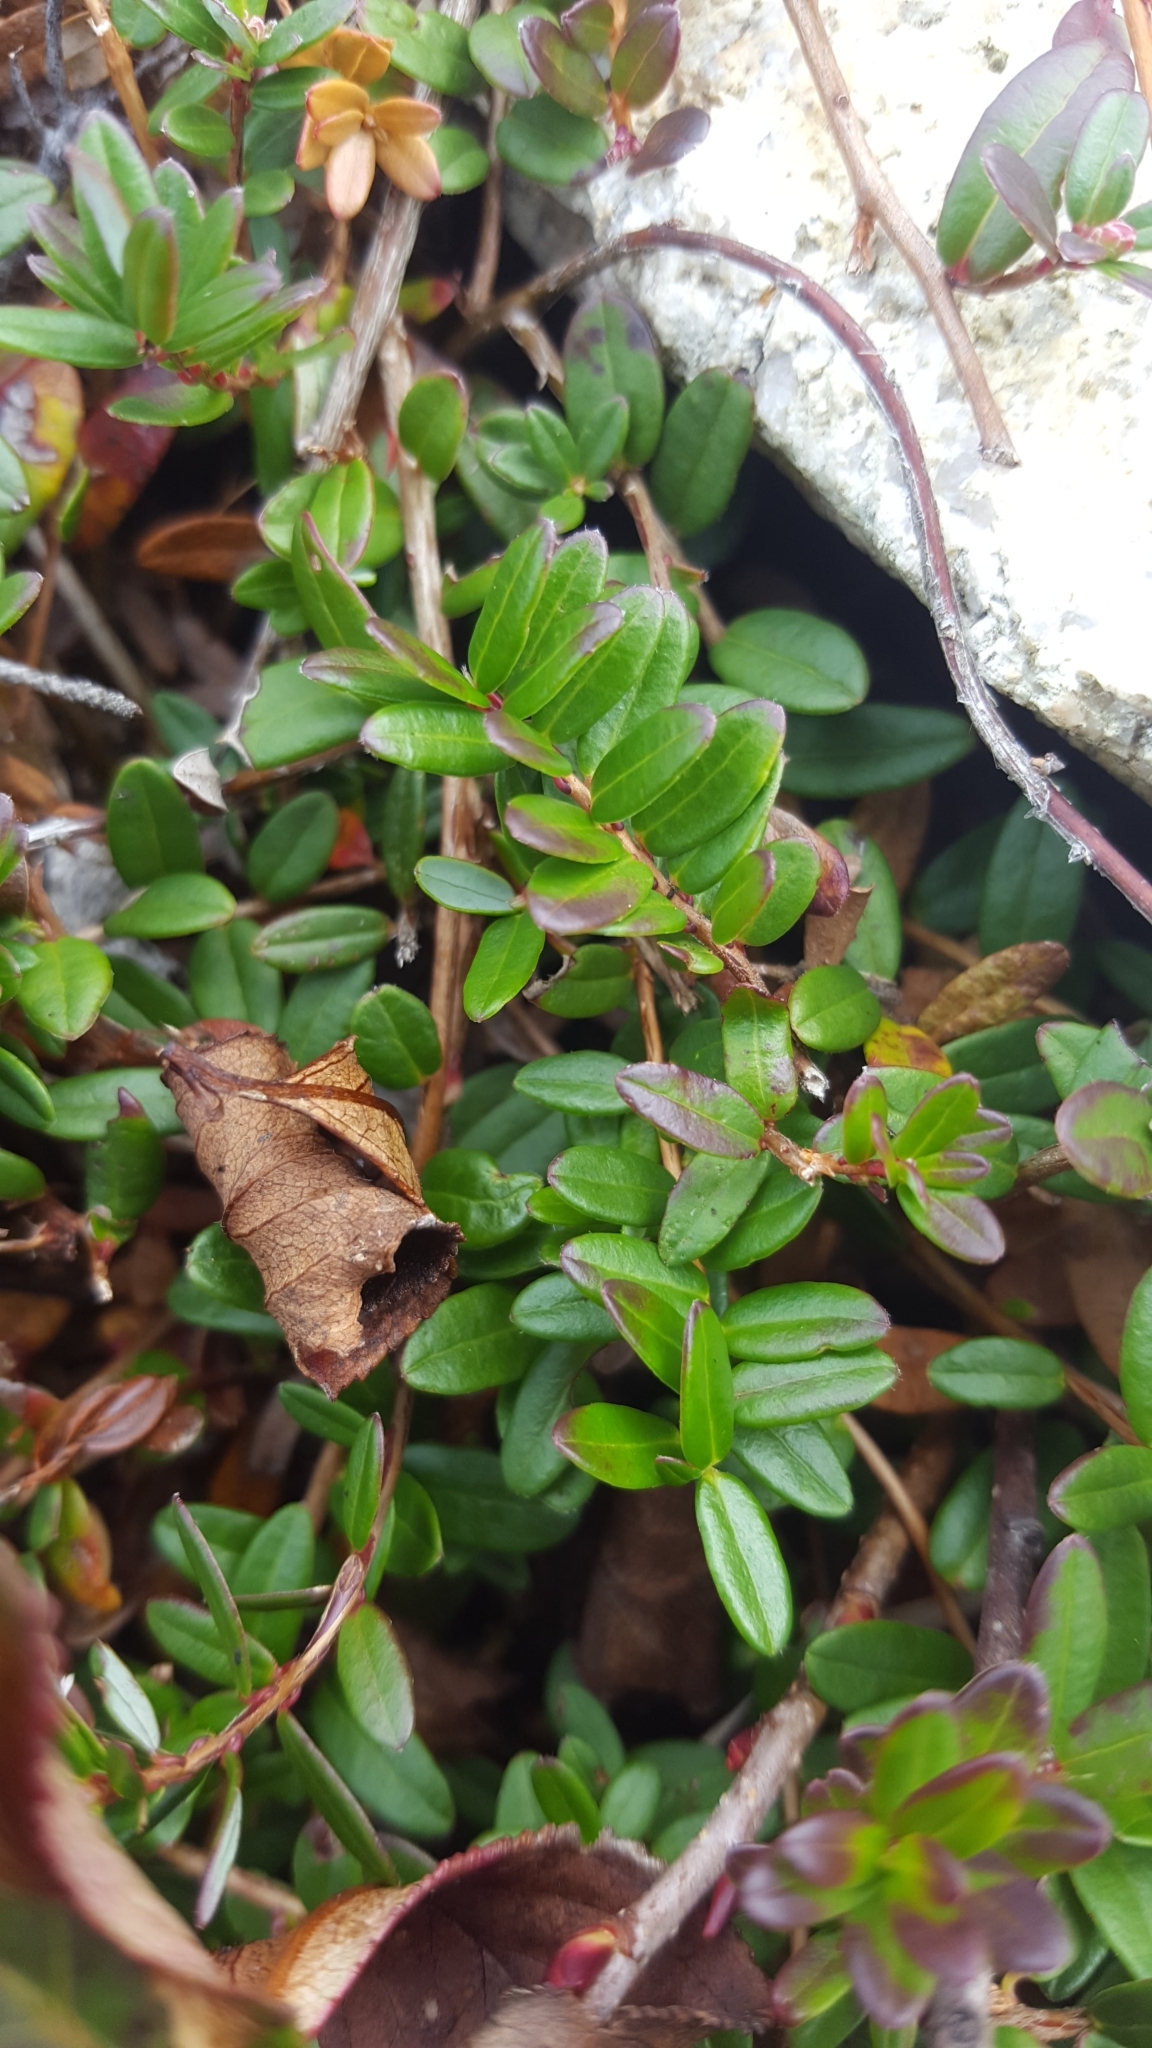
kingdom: Plantae
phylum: Tracheophyta
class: Magnoliopsida
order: Ericales
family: Ericaceae
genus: Vaccinium
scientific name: Vaccinium macrocarpon
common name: American cranberry
